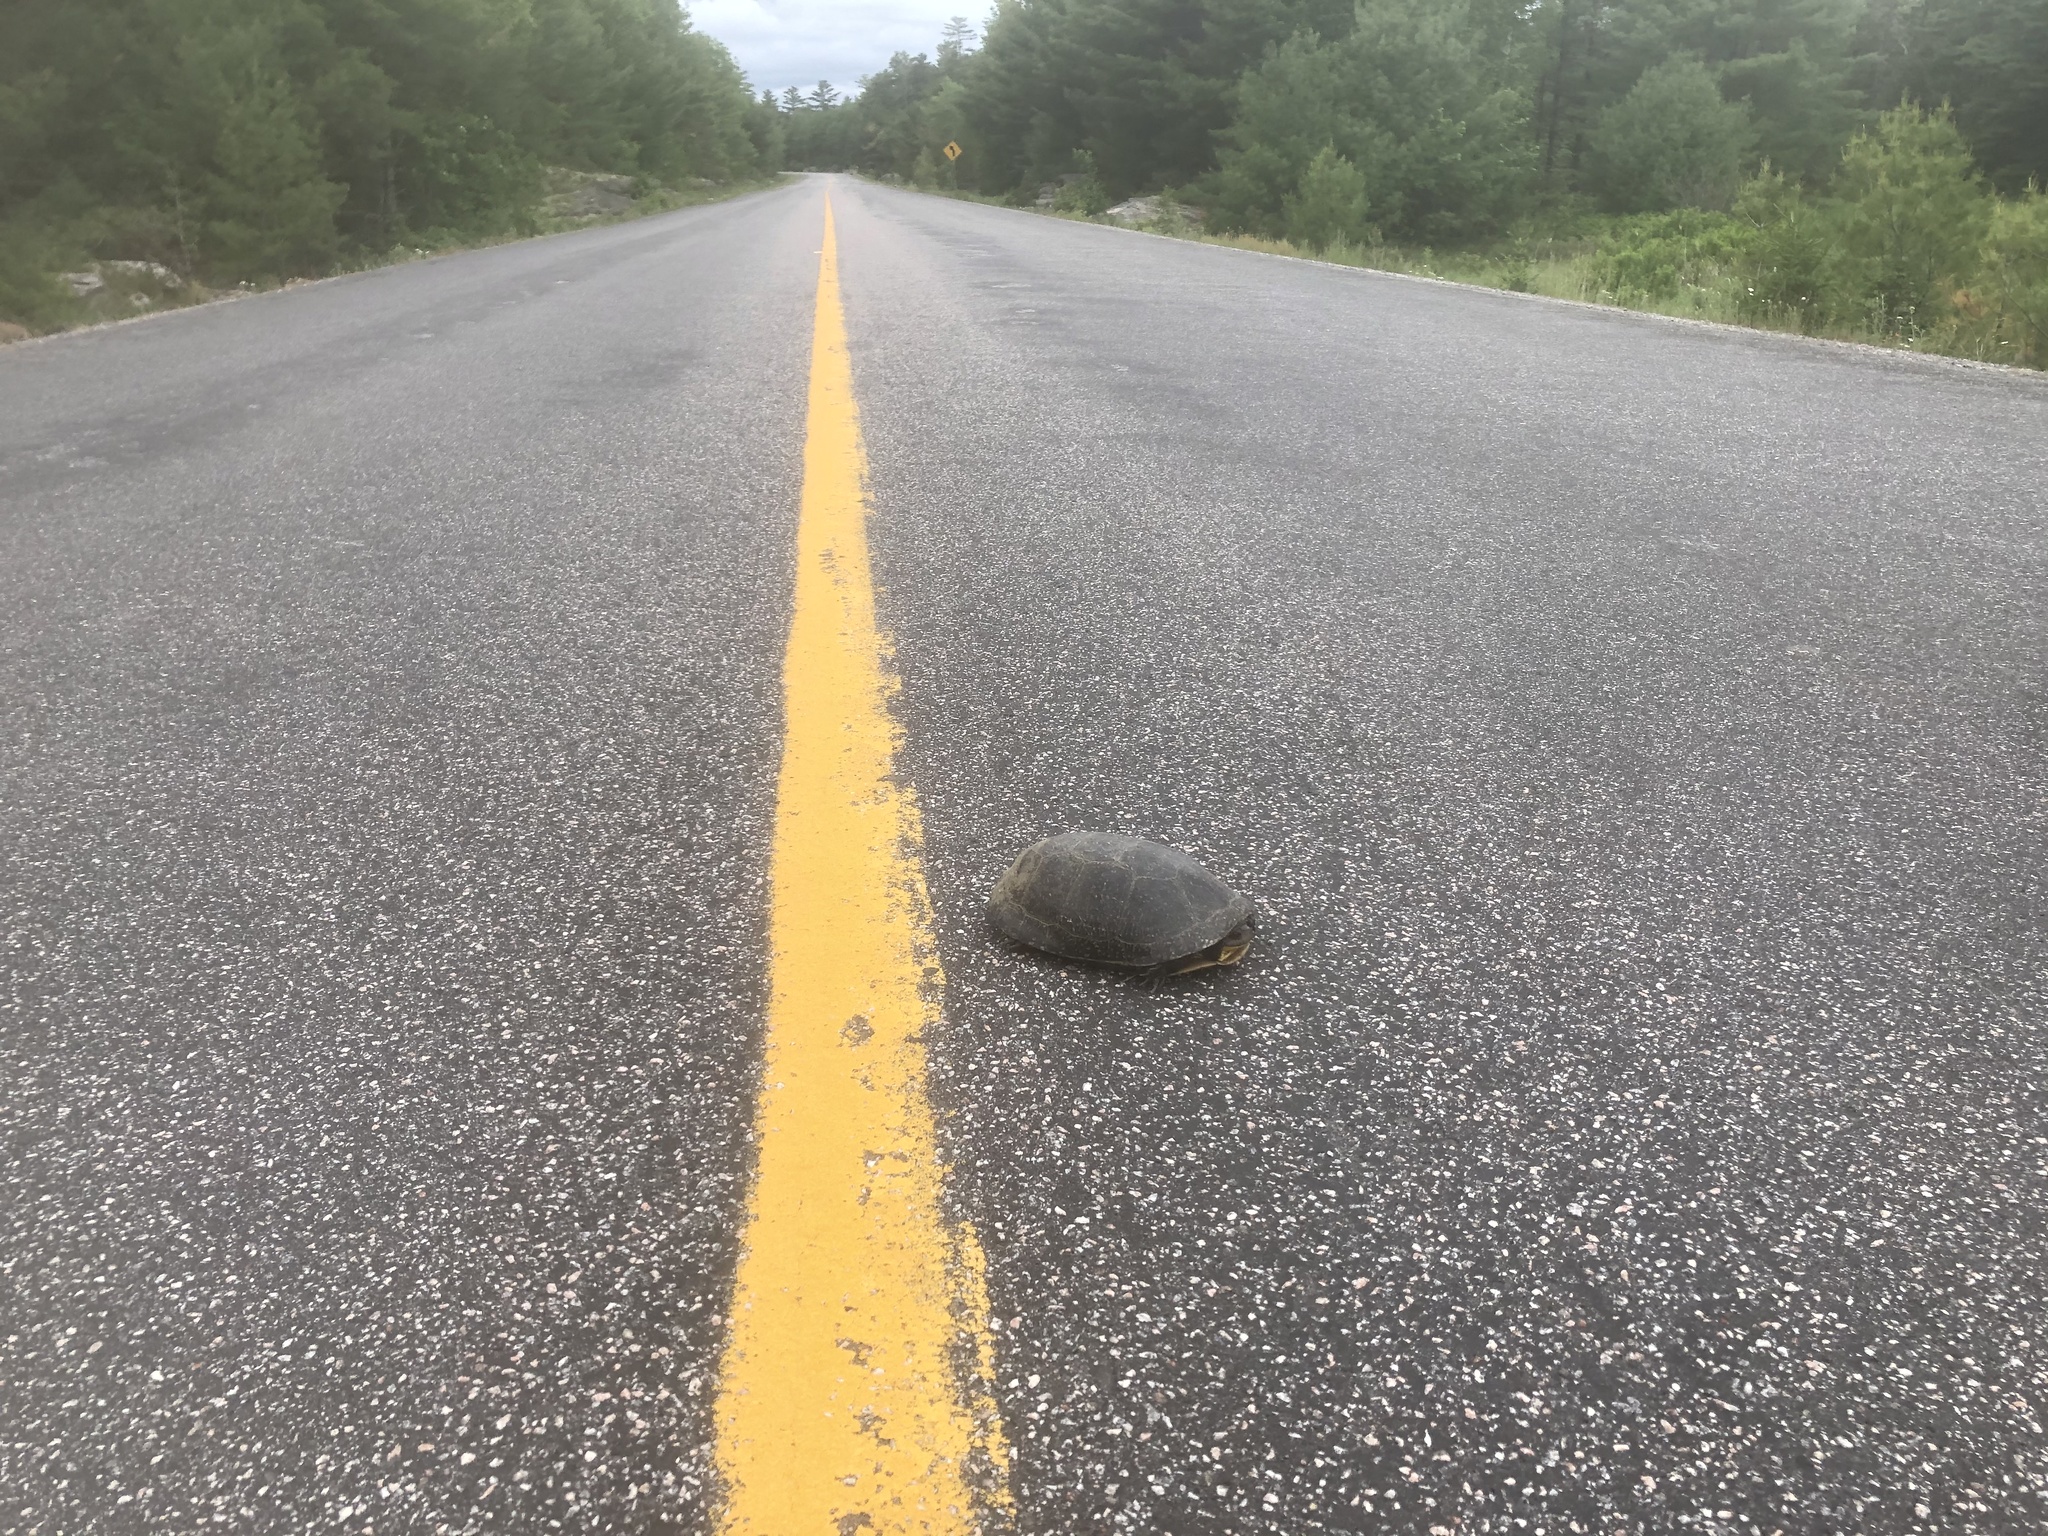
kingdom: Animalia
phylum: Chordata
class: Testudines
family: Emydidae
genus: Emys
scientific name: Emys blandingii
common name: Blanding's turtle
